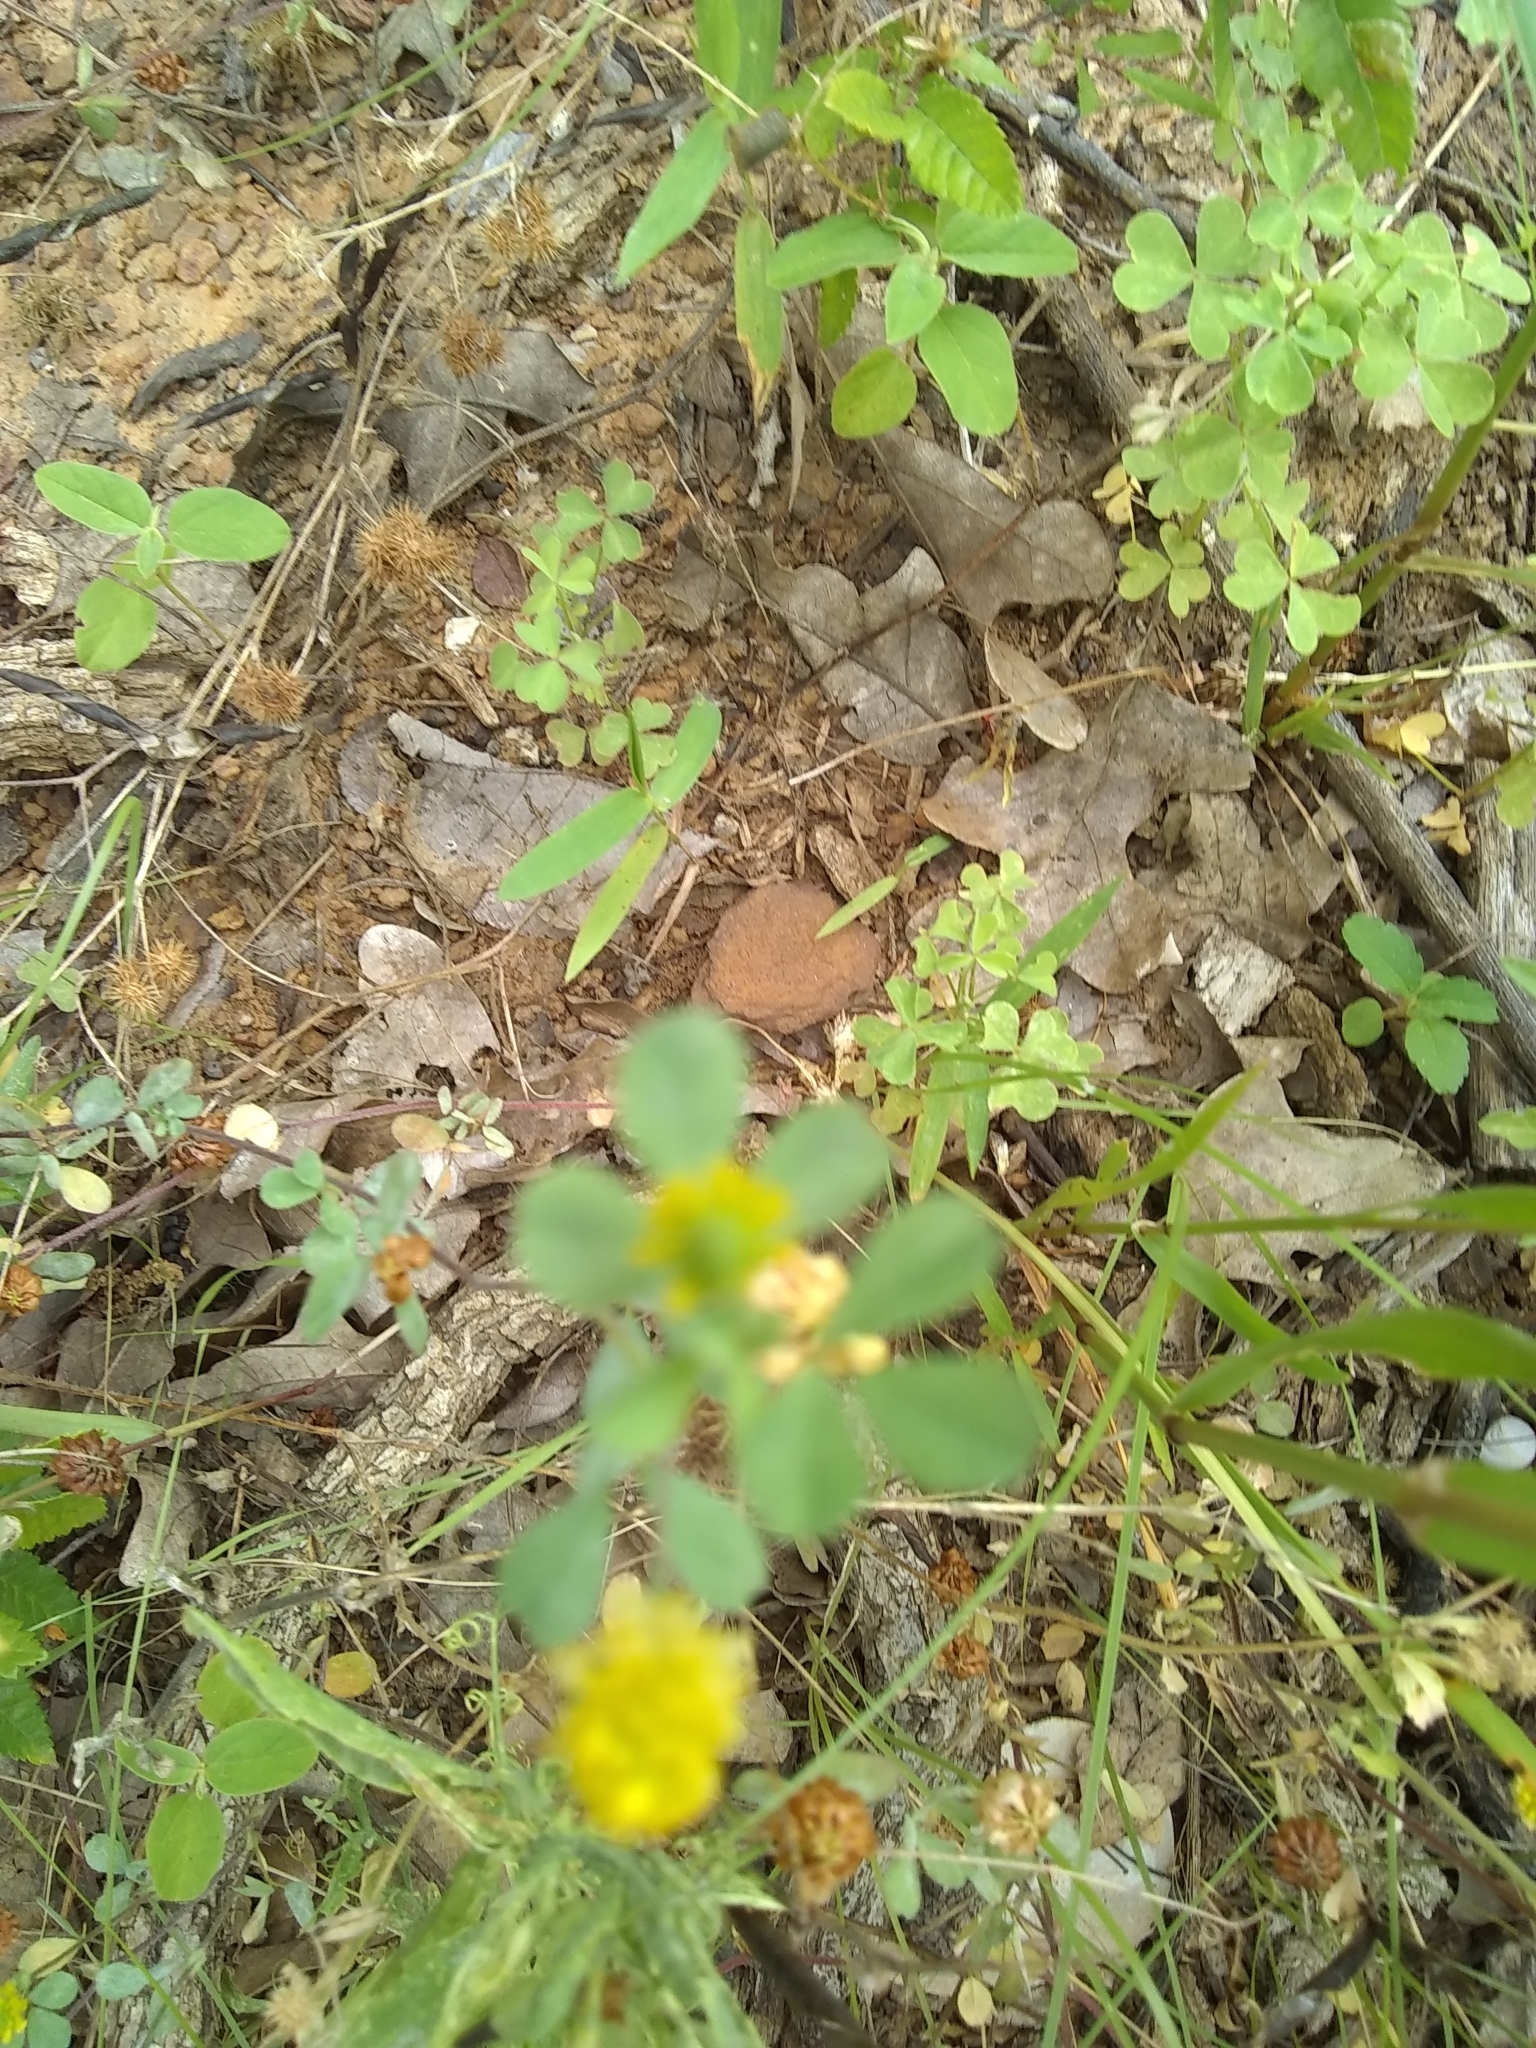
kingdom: Plantae
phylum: Tracheophyta
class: Magnoliopsida
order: Fabales
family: Fabaceae
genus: Trifolium
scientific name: Trifolium campestre
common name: Field clover
